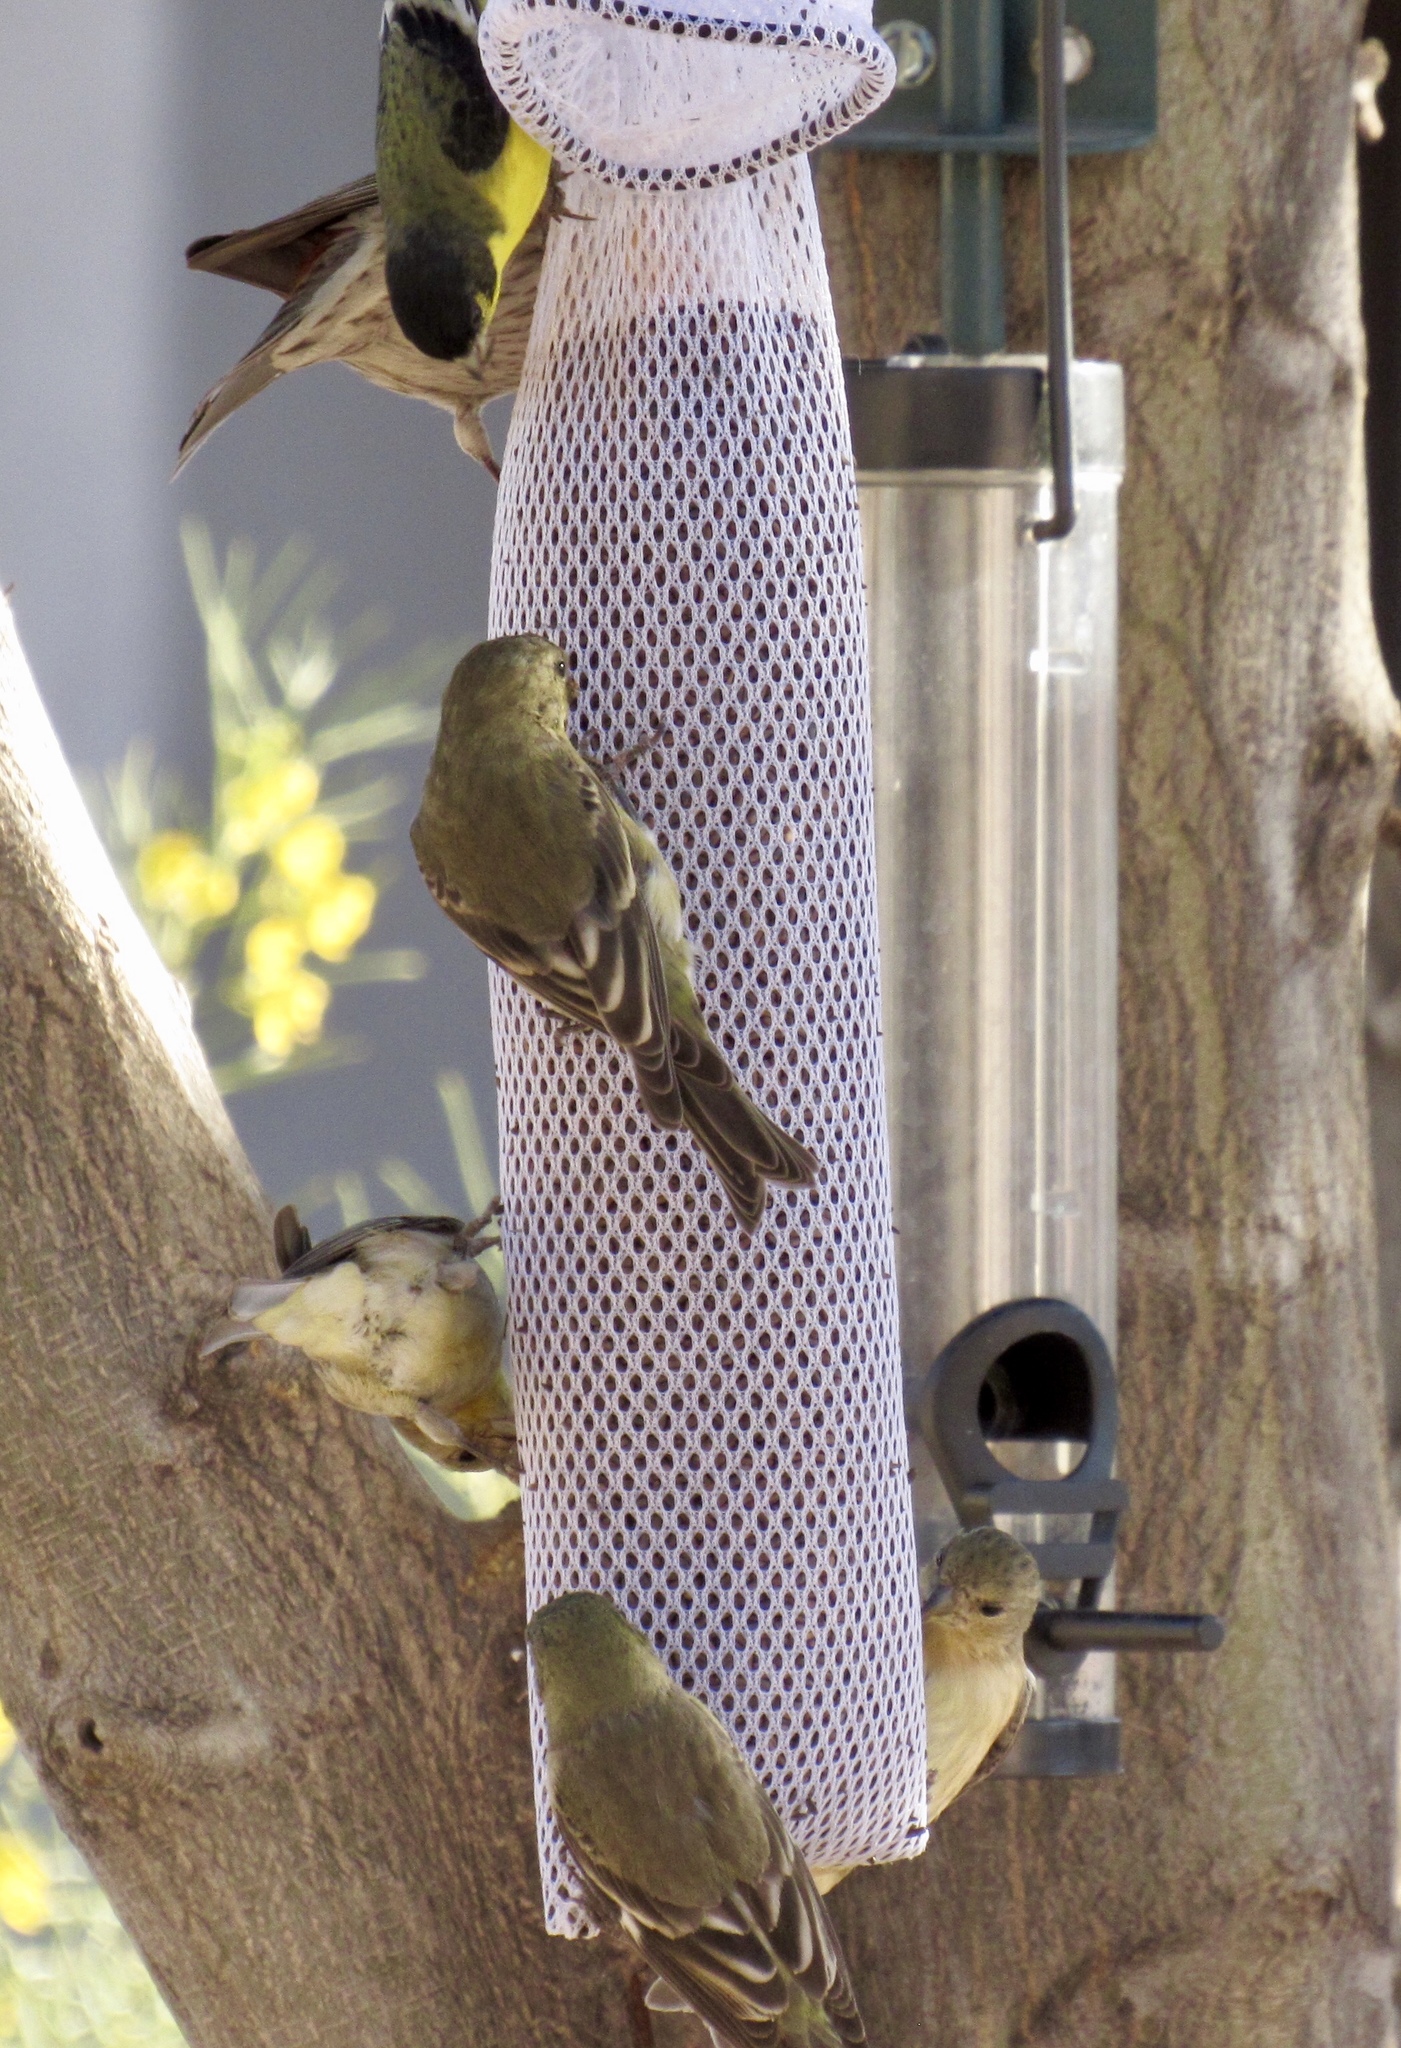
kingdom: Animalia
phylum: Chordata
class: Aves
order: Passeriformes
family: Fringillidae
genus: Spinus
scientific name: Spinus psaltria
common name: Lesser goldfinch
